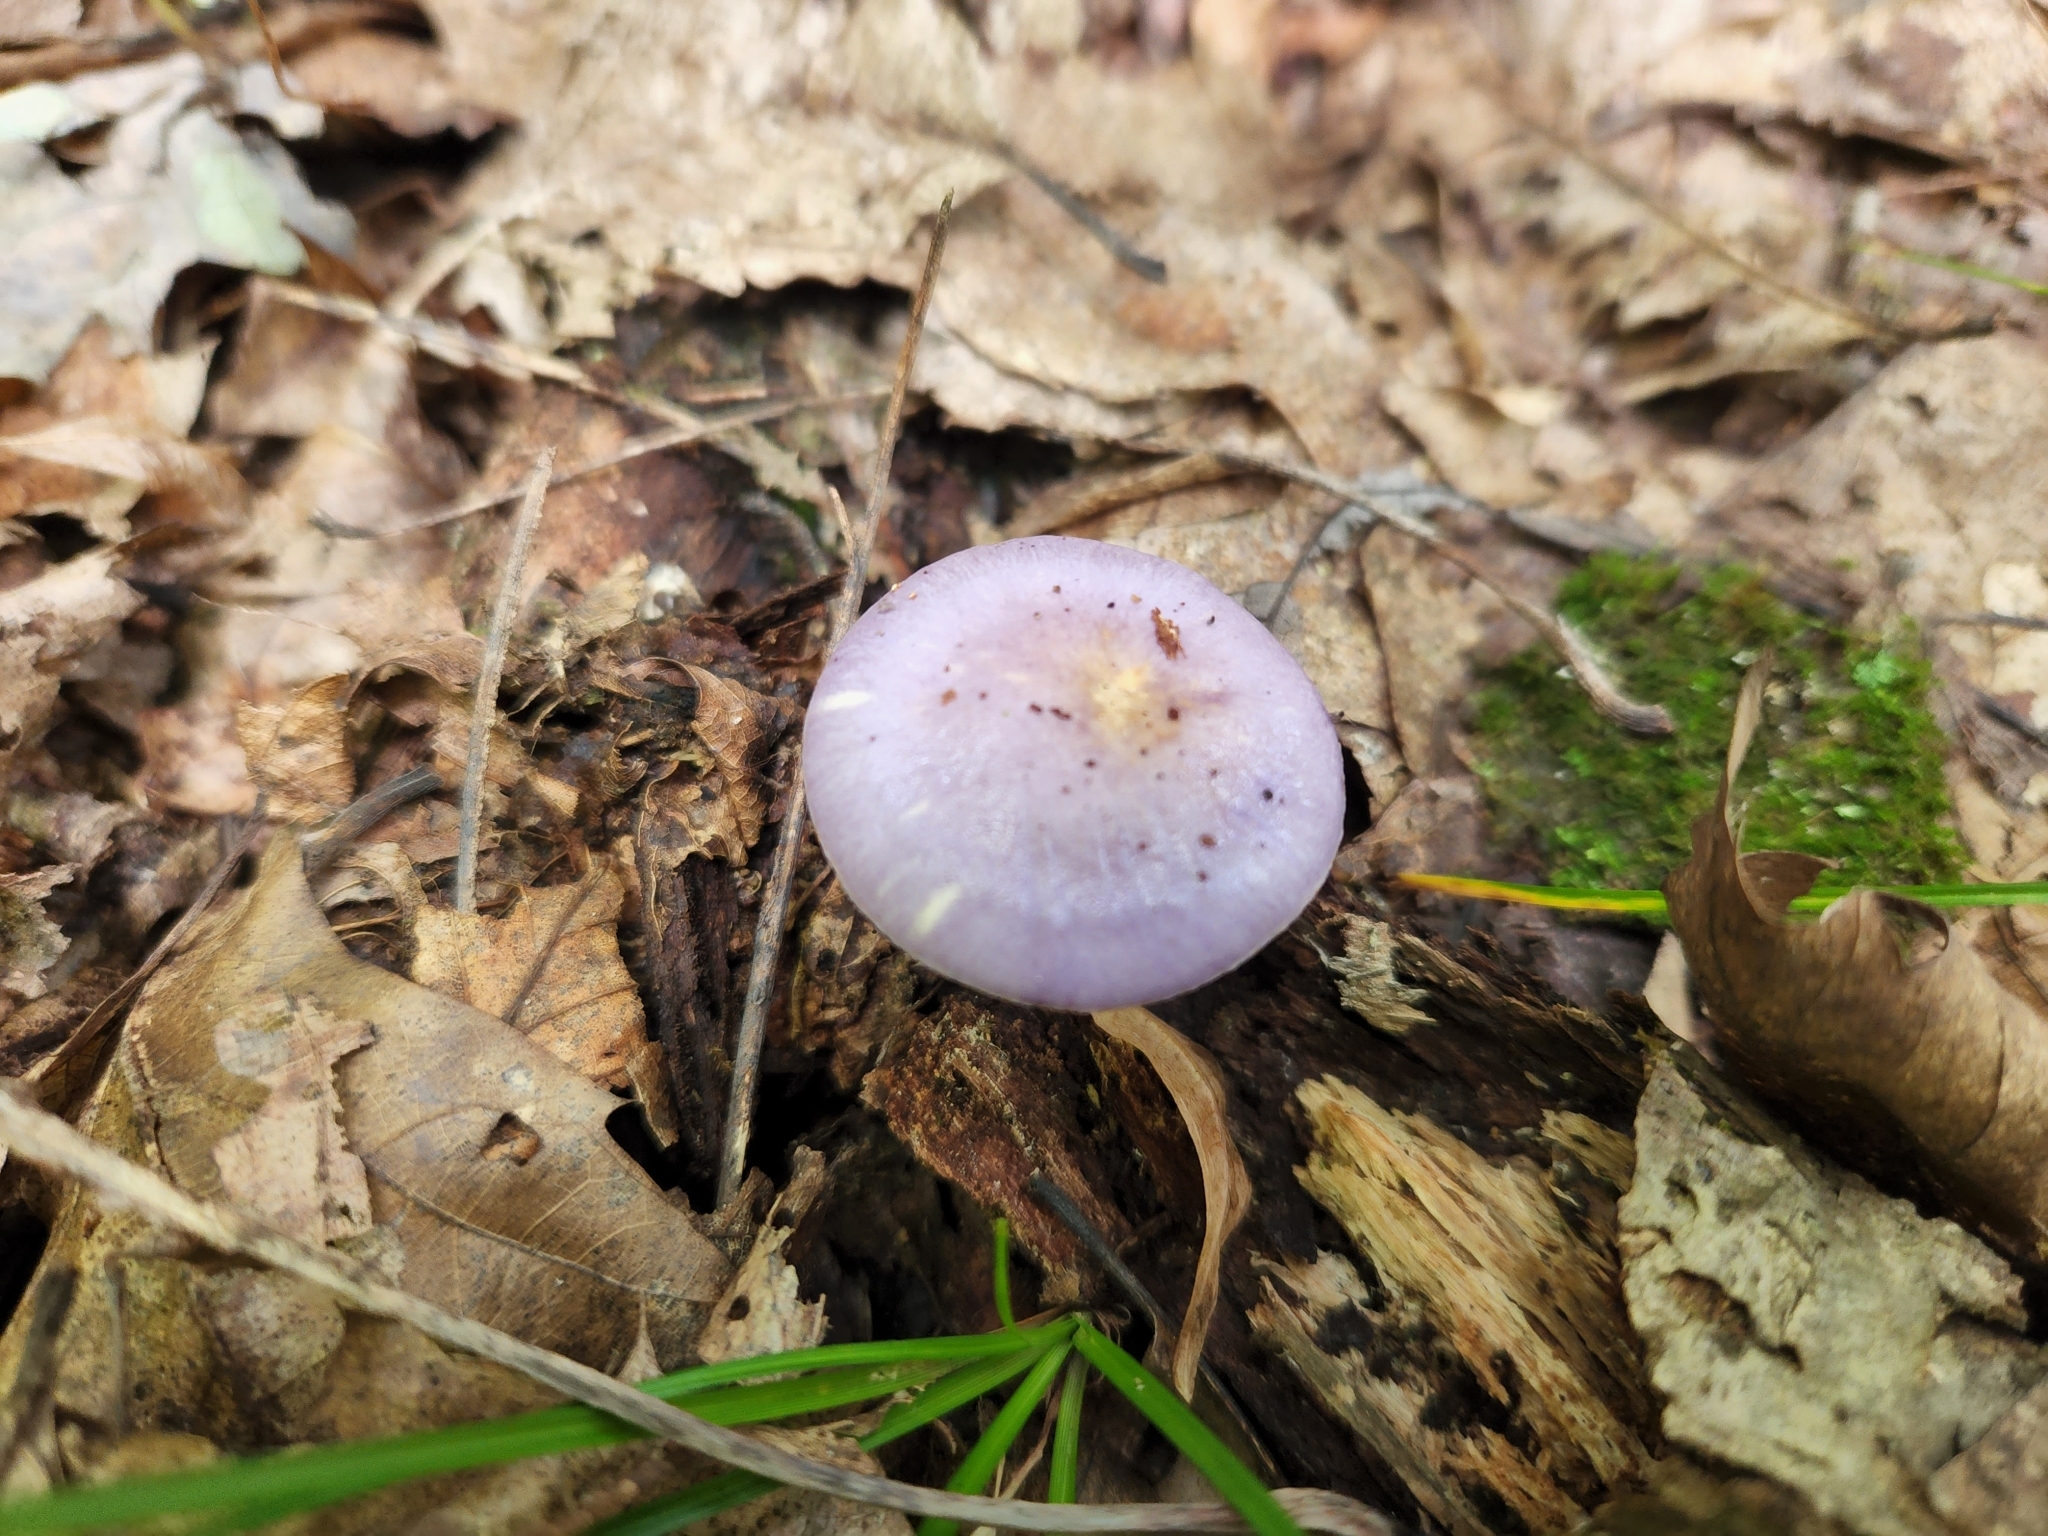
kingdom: Fungi
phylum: Basidiomycota
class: Agaricomycetes
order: Agaricales
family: Cortinariaceae
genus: Cortinarius
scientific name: Cortinarius iodes
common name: Viscid violet cort
